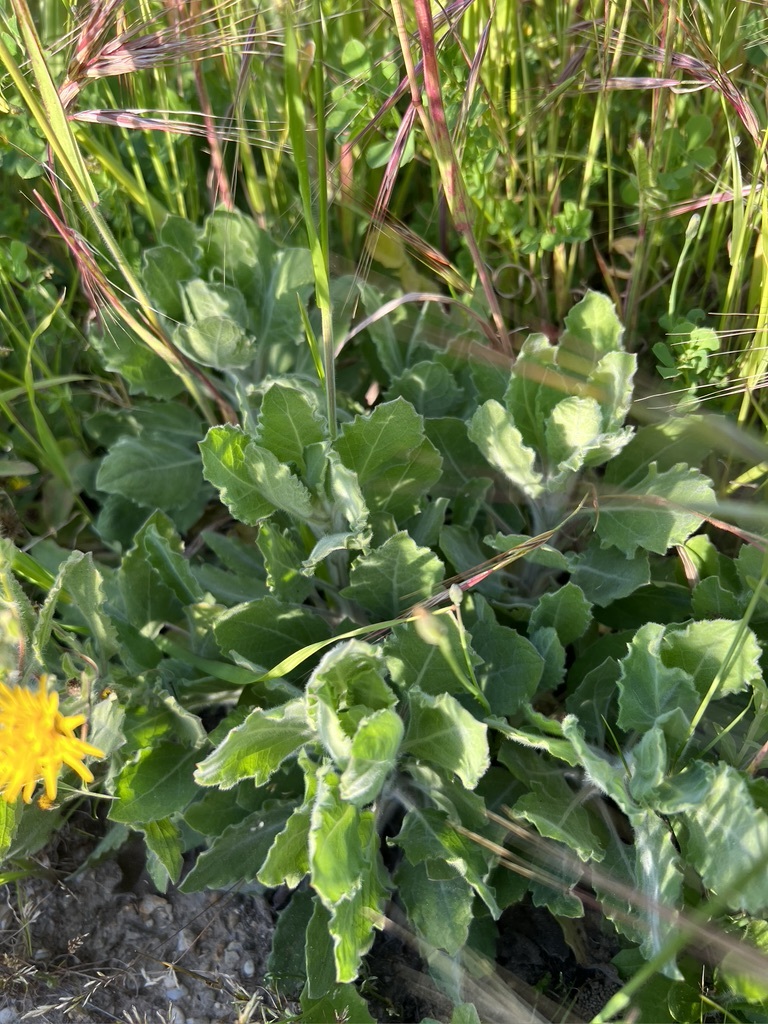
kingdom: Plantae
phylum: Tracheophyta
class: Magnoliopsida
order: Asterales
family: Asteraceae
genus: Heterotheca
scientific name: Heterotheca grandiflora
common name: Telegraphweed
